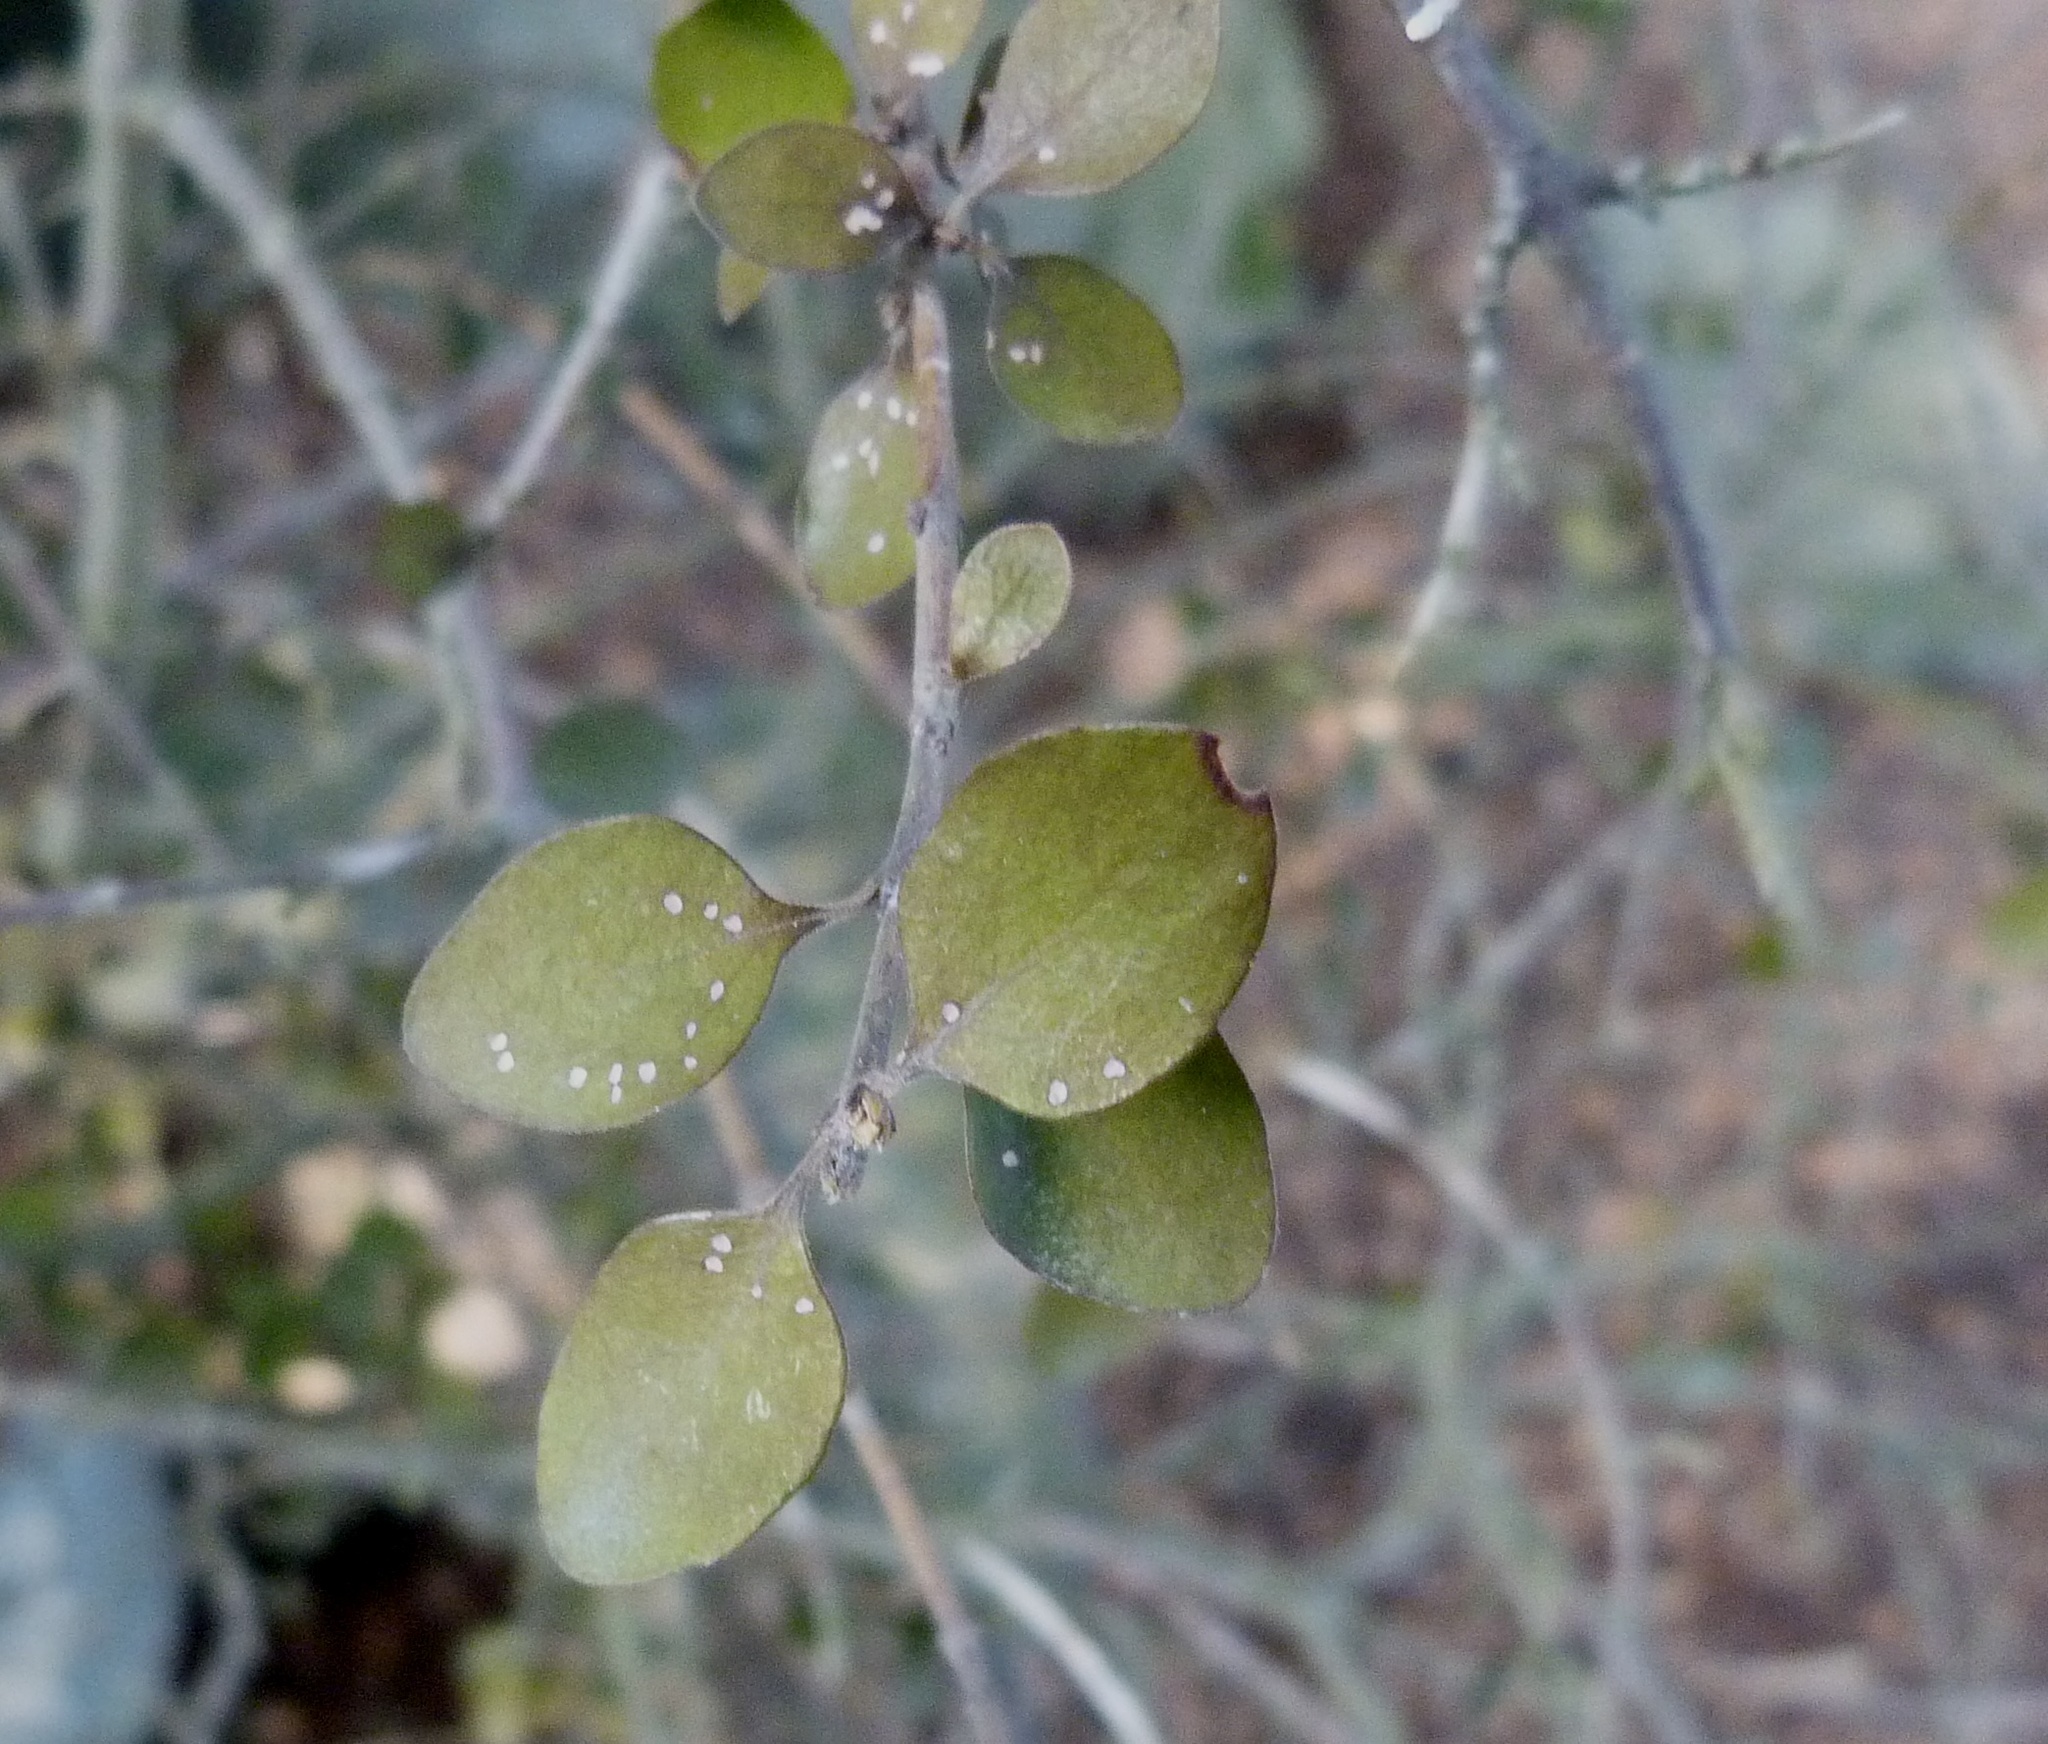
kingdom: Plantae
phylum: Tracheophyta
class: Magnoliopsida
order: Oxalidales
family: Elaeocarpaceae
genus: Aristotelia
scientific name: Aristotelia fruticosa
